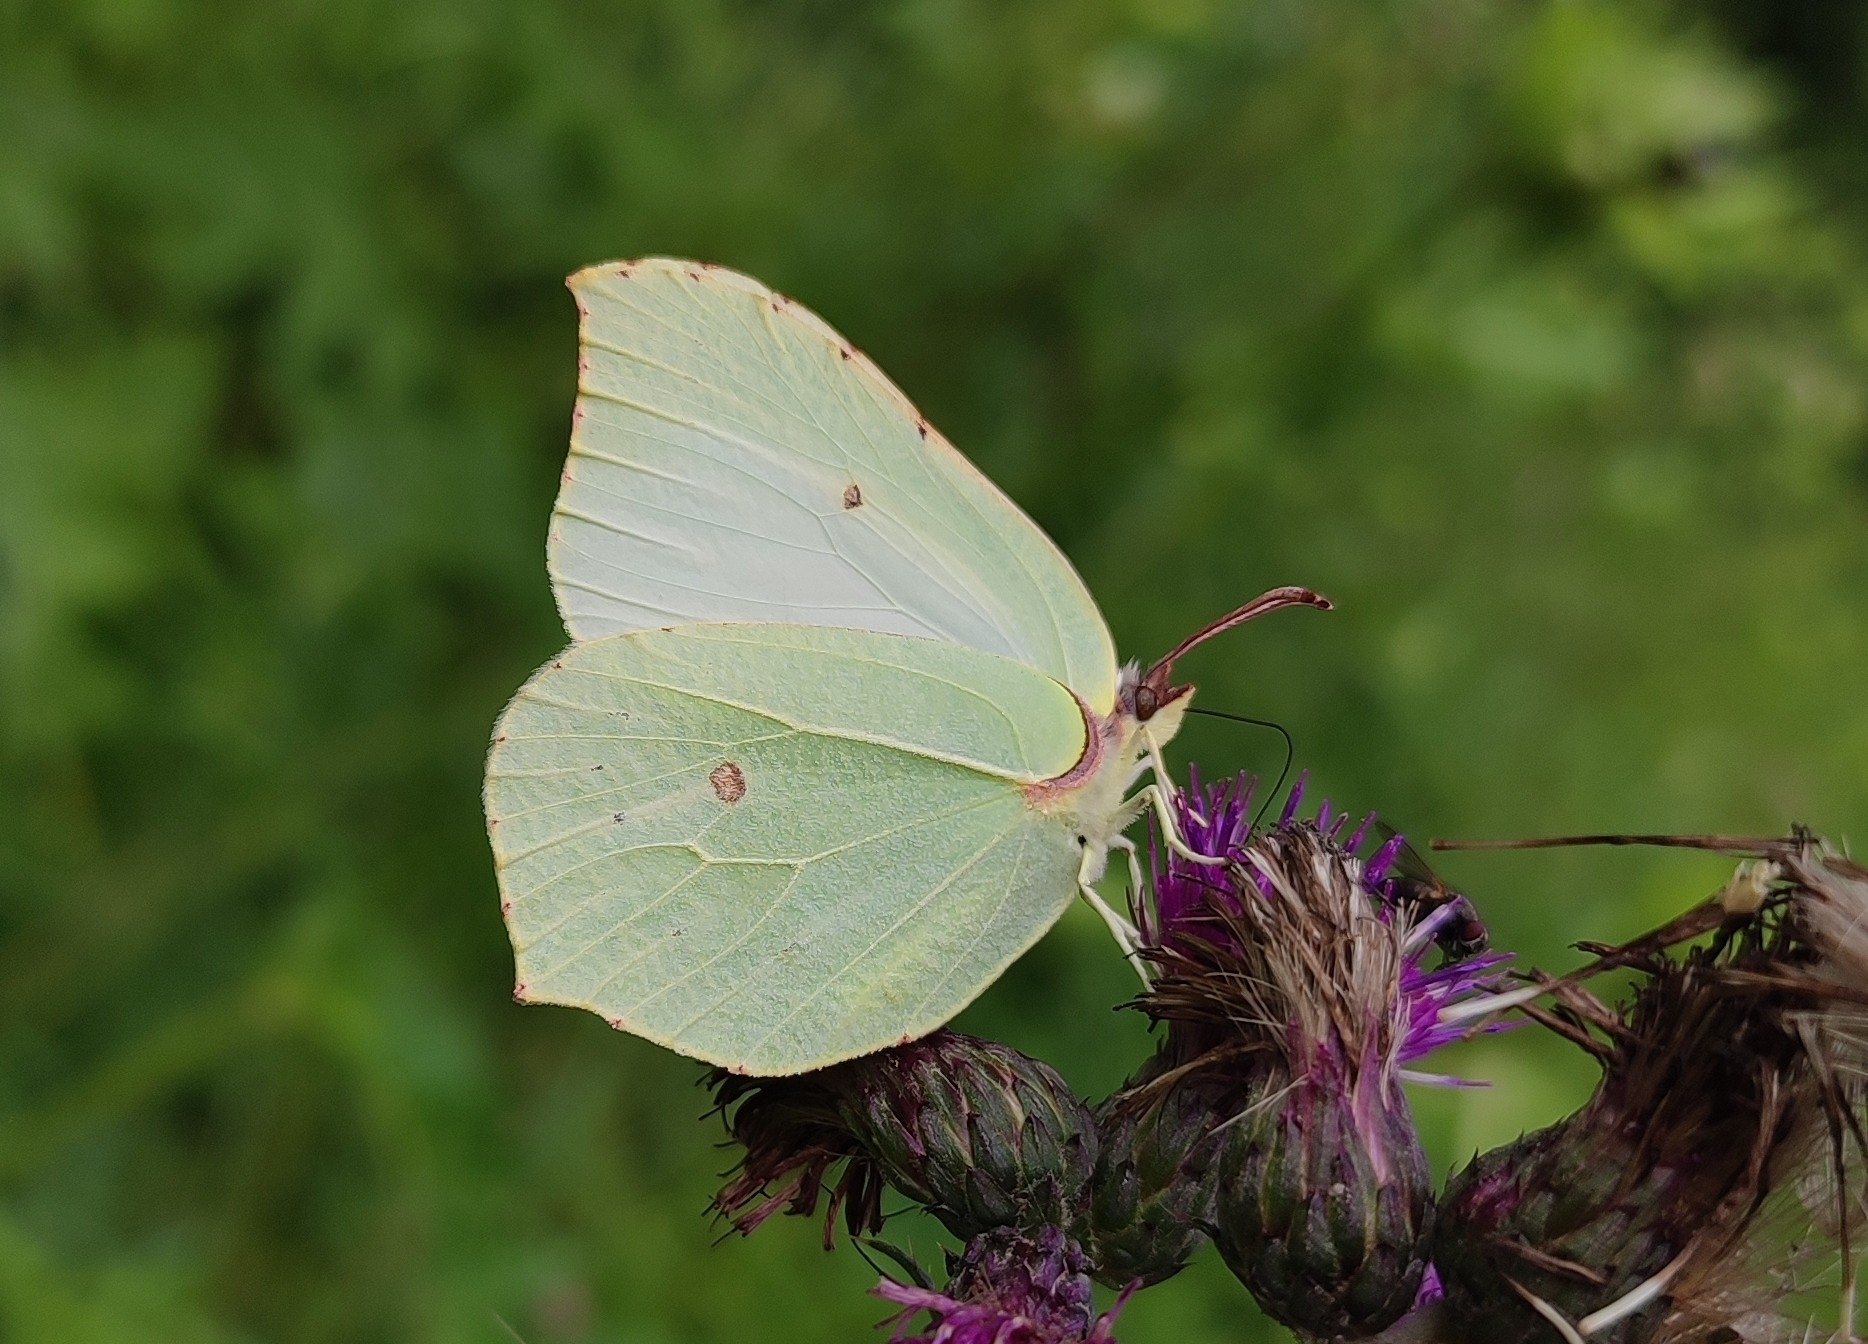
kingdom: Animalia
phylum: Arthropoda
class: Insecta
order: Lepidoptera
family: Pieridae
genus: Gonepteryx
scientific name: Gonepteryx rhamni
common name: Brimstone
